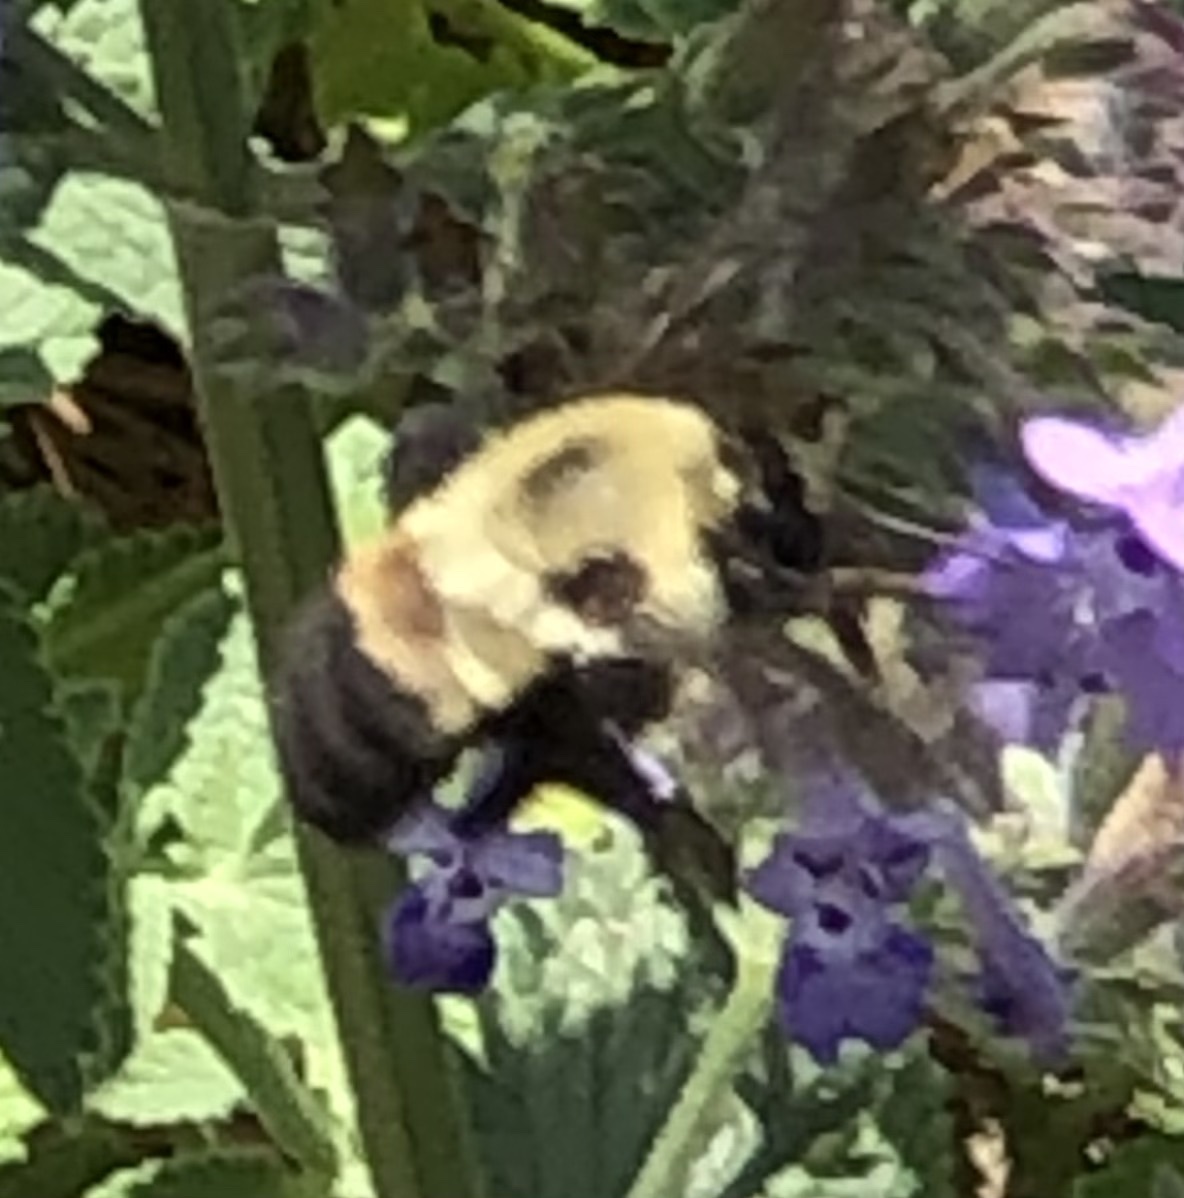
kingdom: Animalia
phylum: Arthropoda
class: Insecta
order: Hymenoptera
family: Apidae
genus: Bombus
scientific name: Bombus griseocollis
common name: Brown-belted bumble bee
